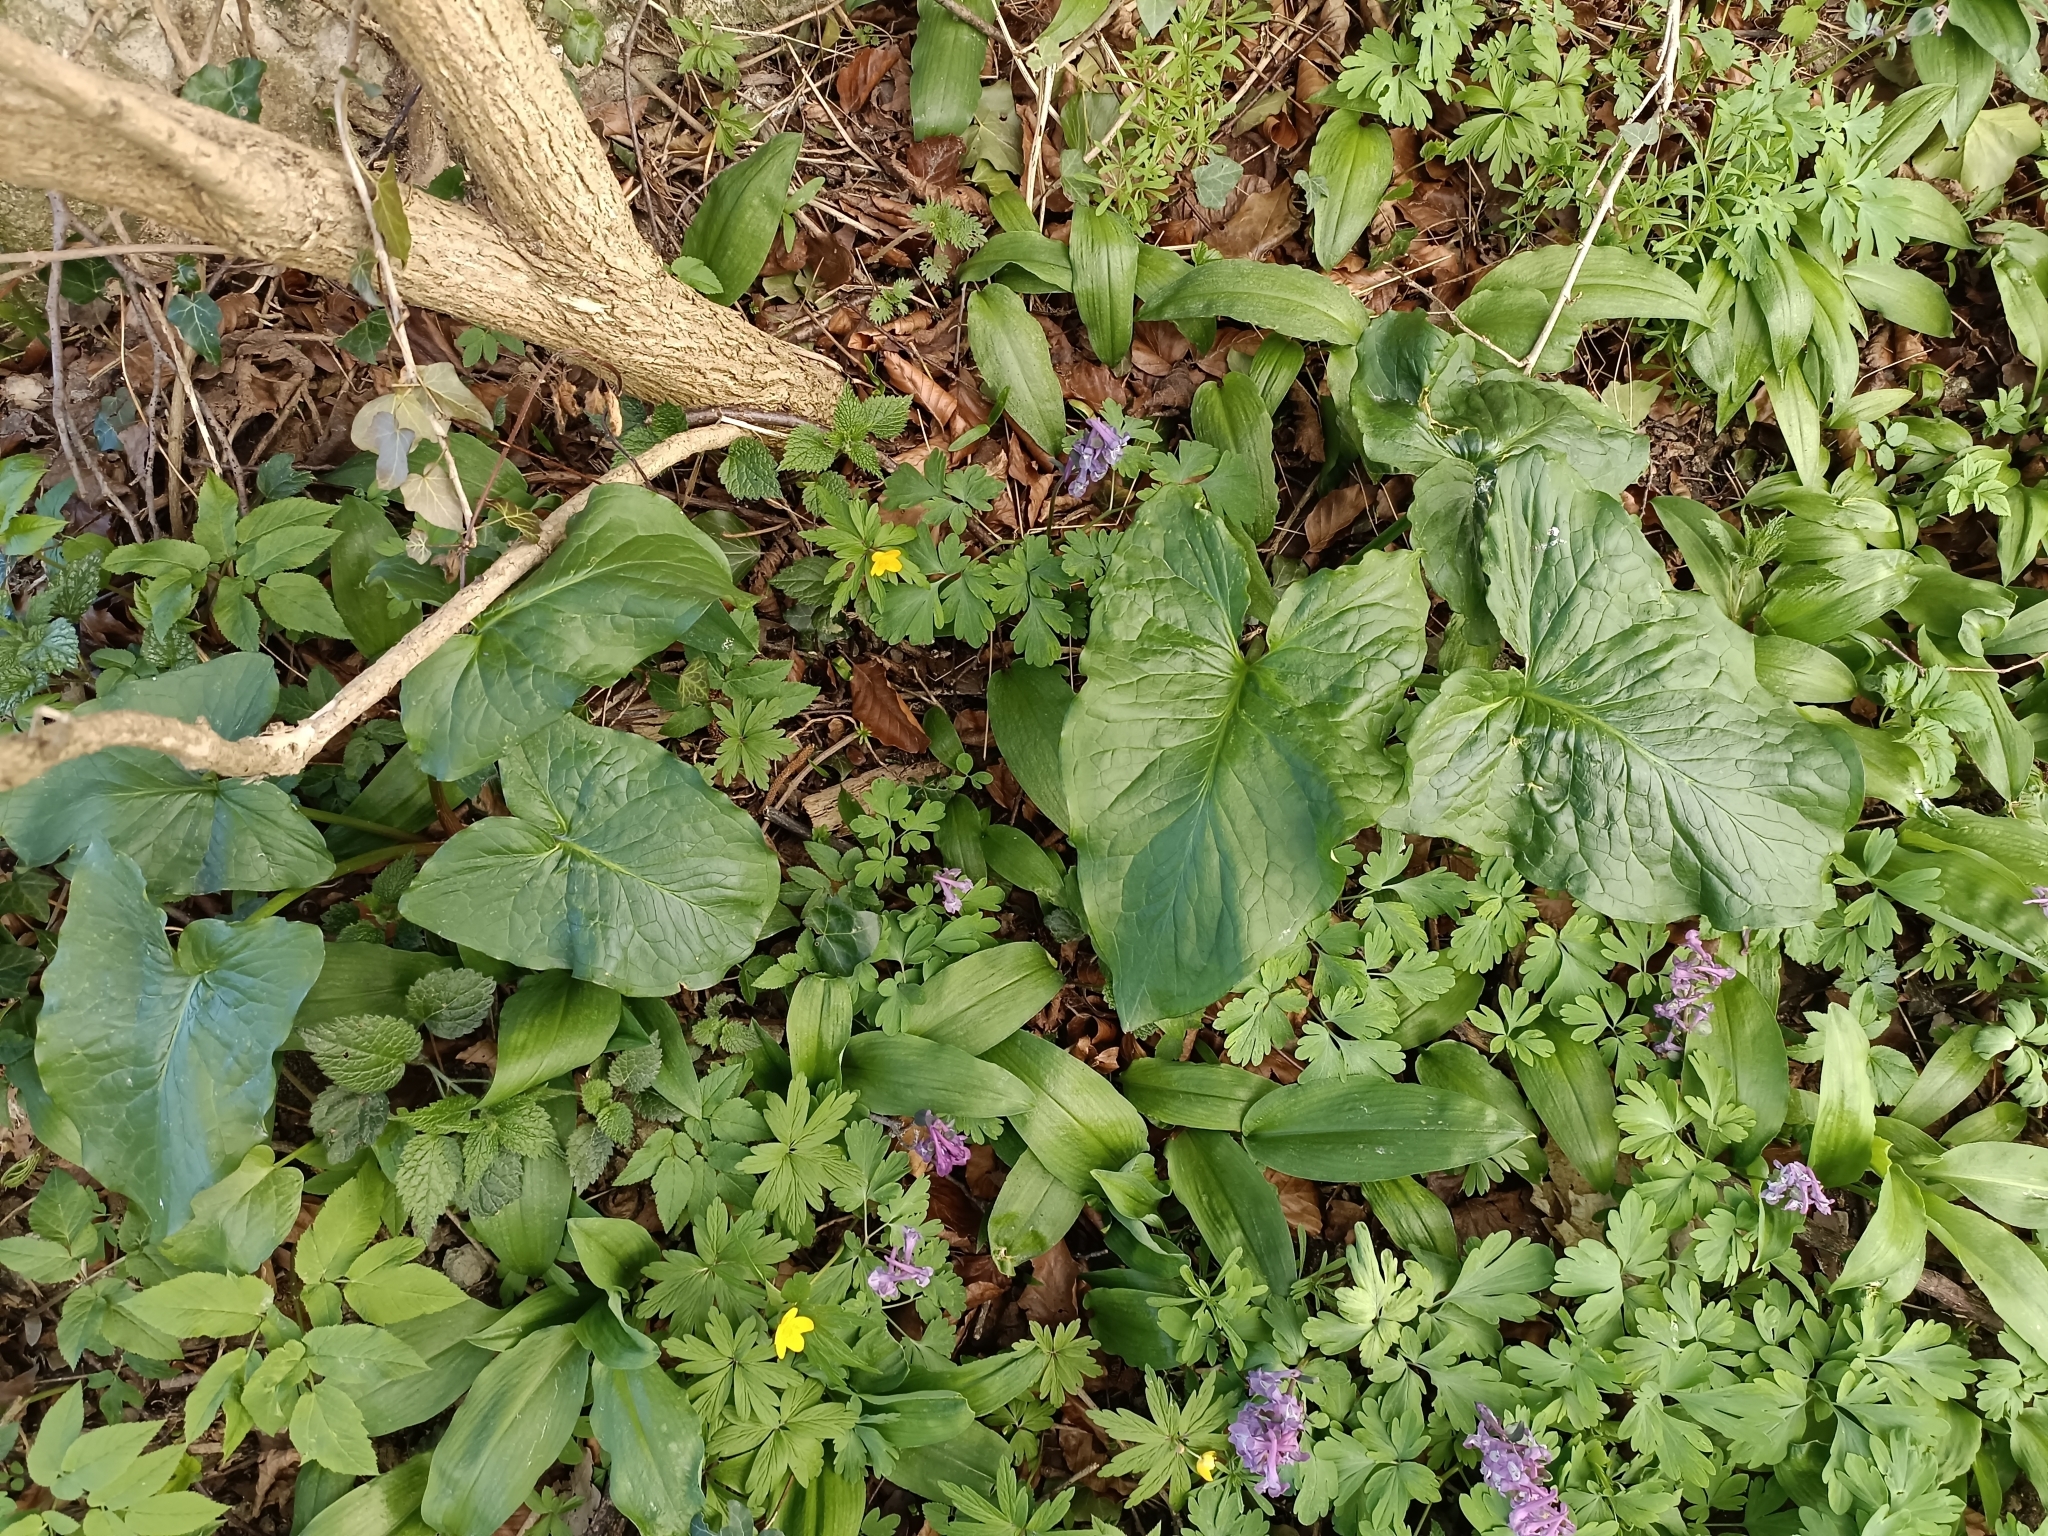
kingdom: Plantae
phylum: Tracheophyta
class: Liliopsida
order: Alismatales
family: Araceae
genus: Arum
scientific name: Arum cylindraceum
